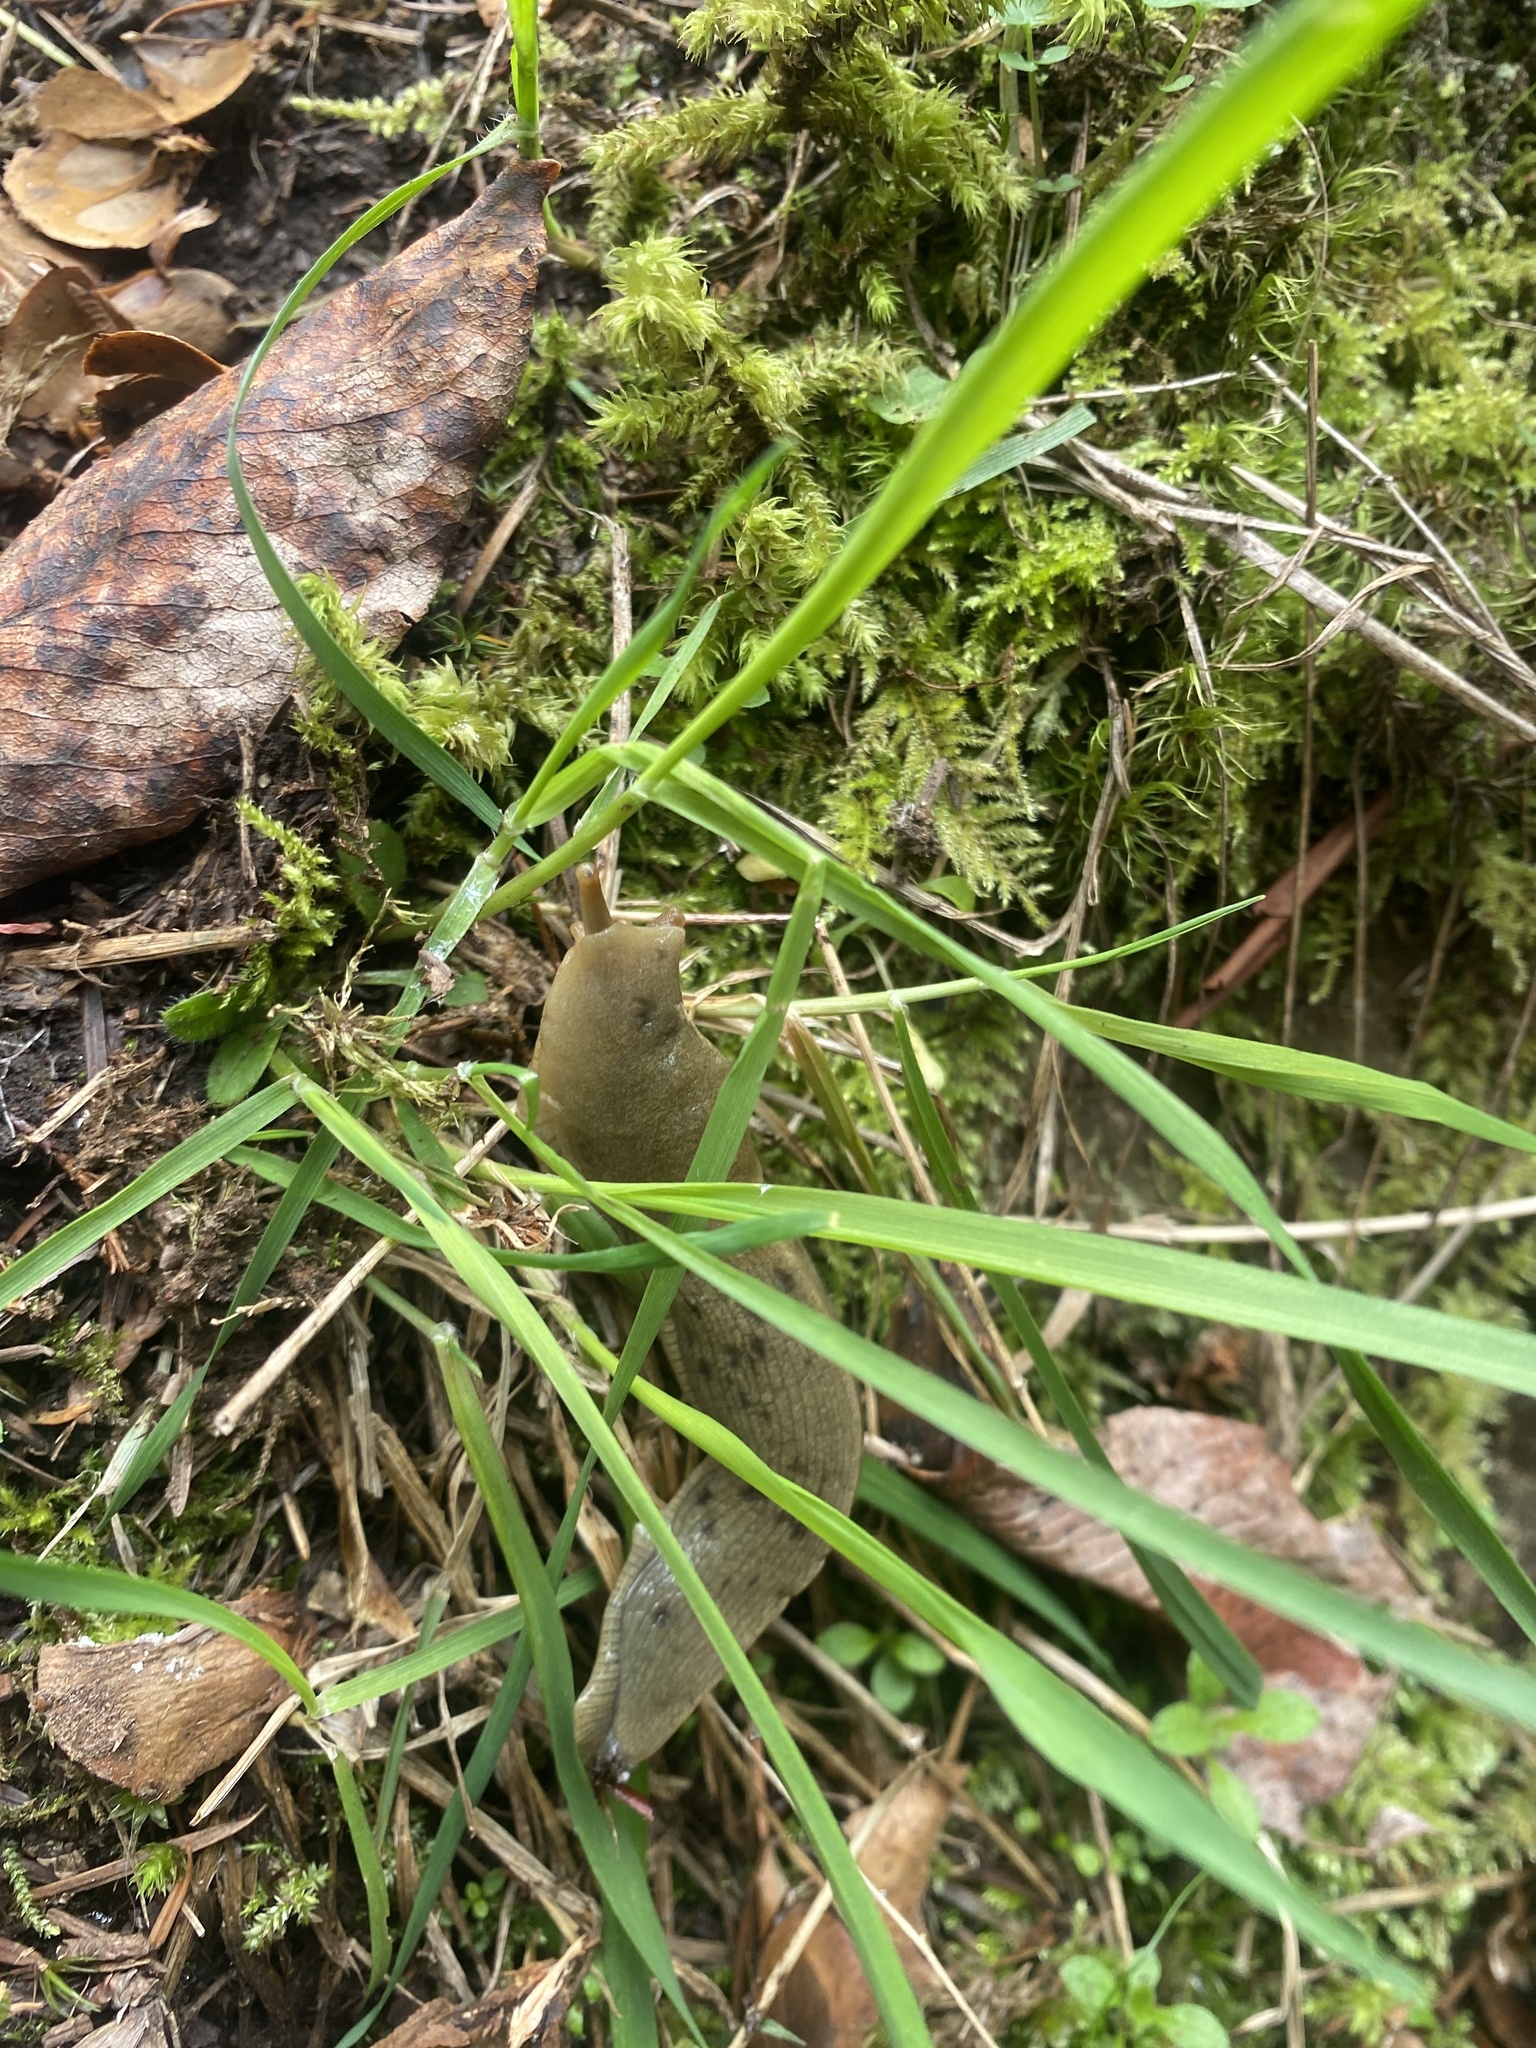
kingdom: Animalia
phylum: Mollusca
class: Gastropoda
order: Stylommatophora
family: Ariolimacidae
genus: Ariolimax
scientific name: Ariolimax columbianus
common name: Pacific banana slug
